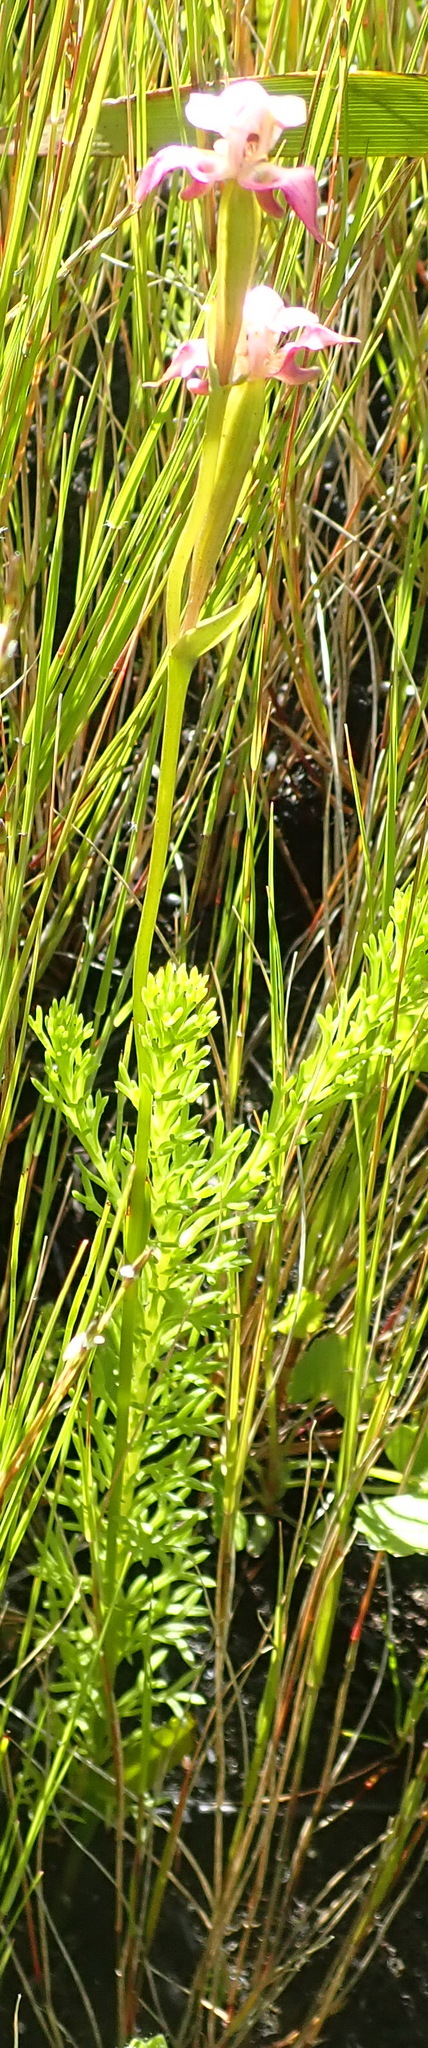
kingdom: Plantae
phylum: Tracheophyta
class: Liliopsida
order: Asparagales
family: Orchidaceae
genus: Disperis
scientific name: Disperis paludosa
